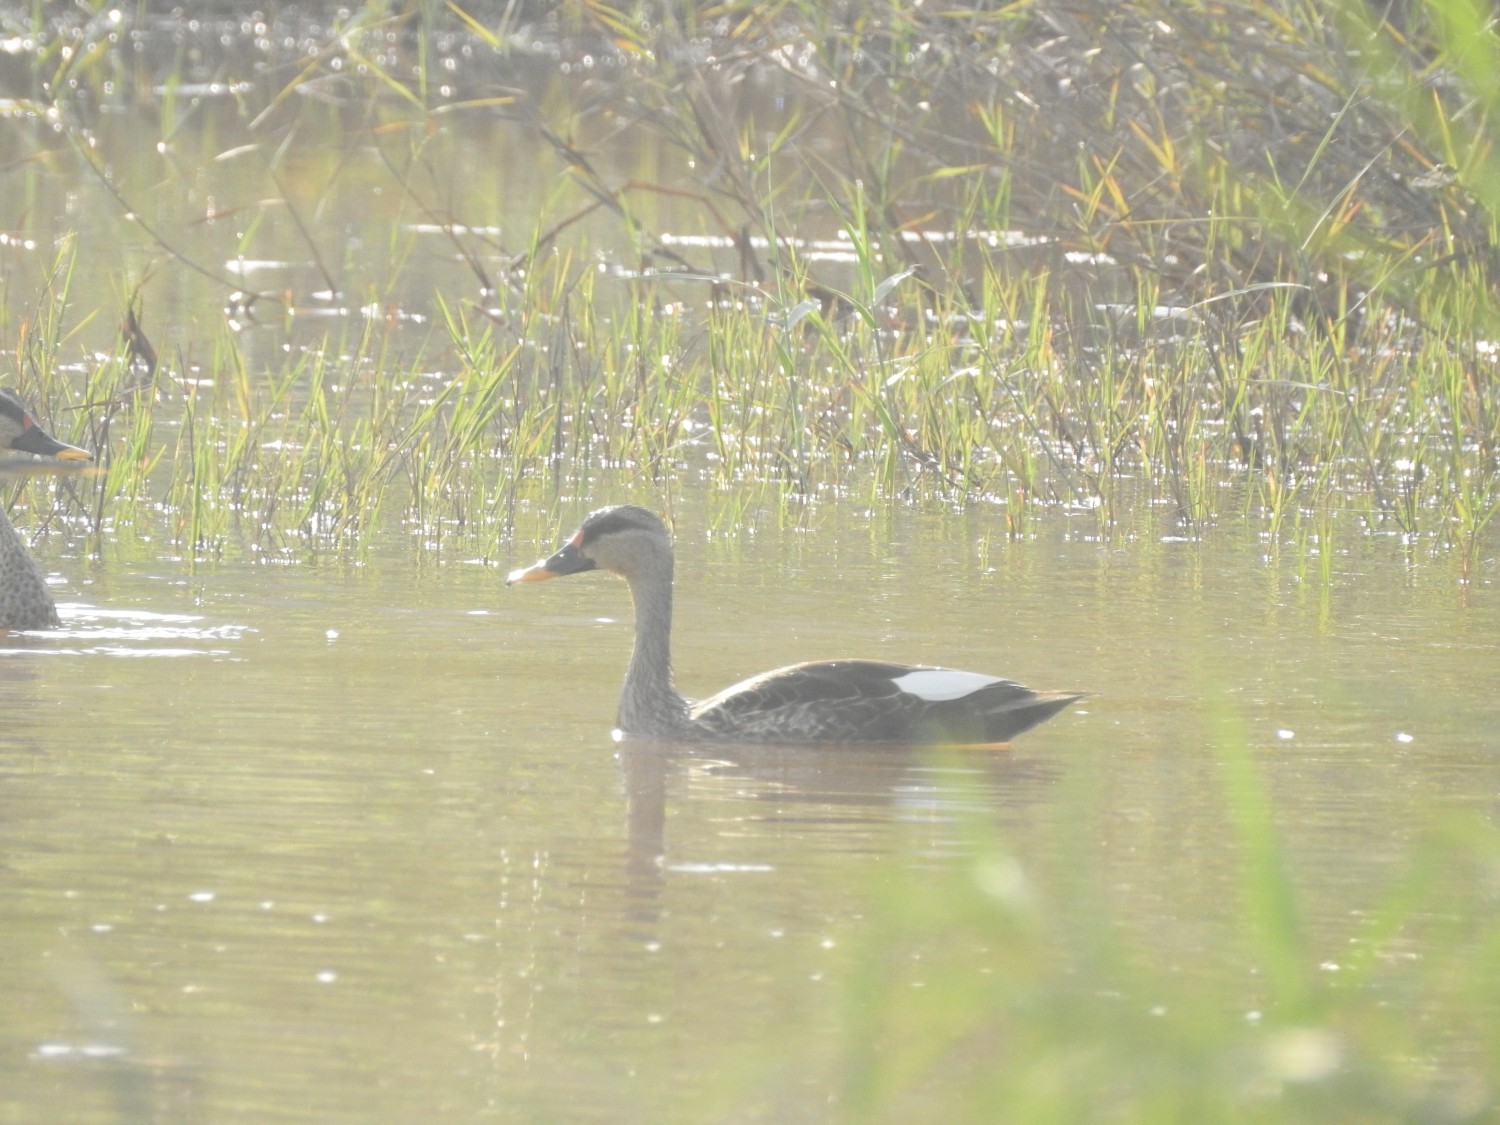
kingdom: Animalia
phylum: Chordata
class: Aves
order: Anseriformes
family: Anatidae
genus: Anas
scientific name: Anas poecilorhyncha
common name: Indian spot-billed duck
